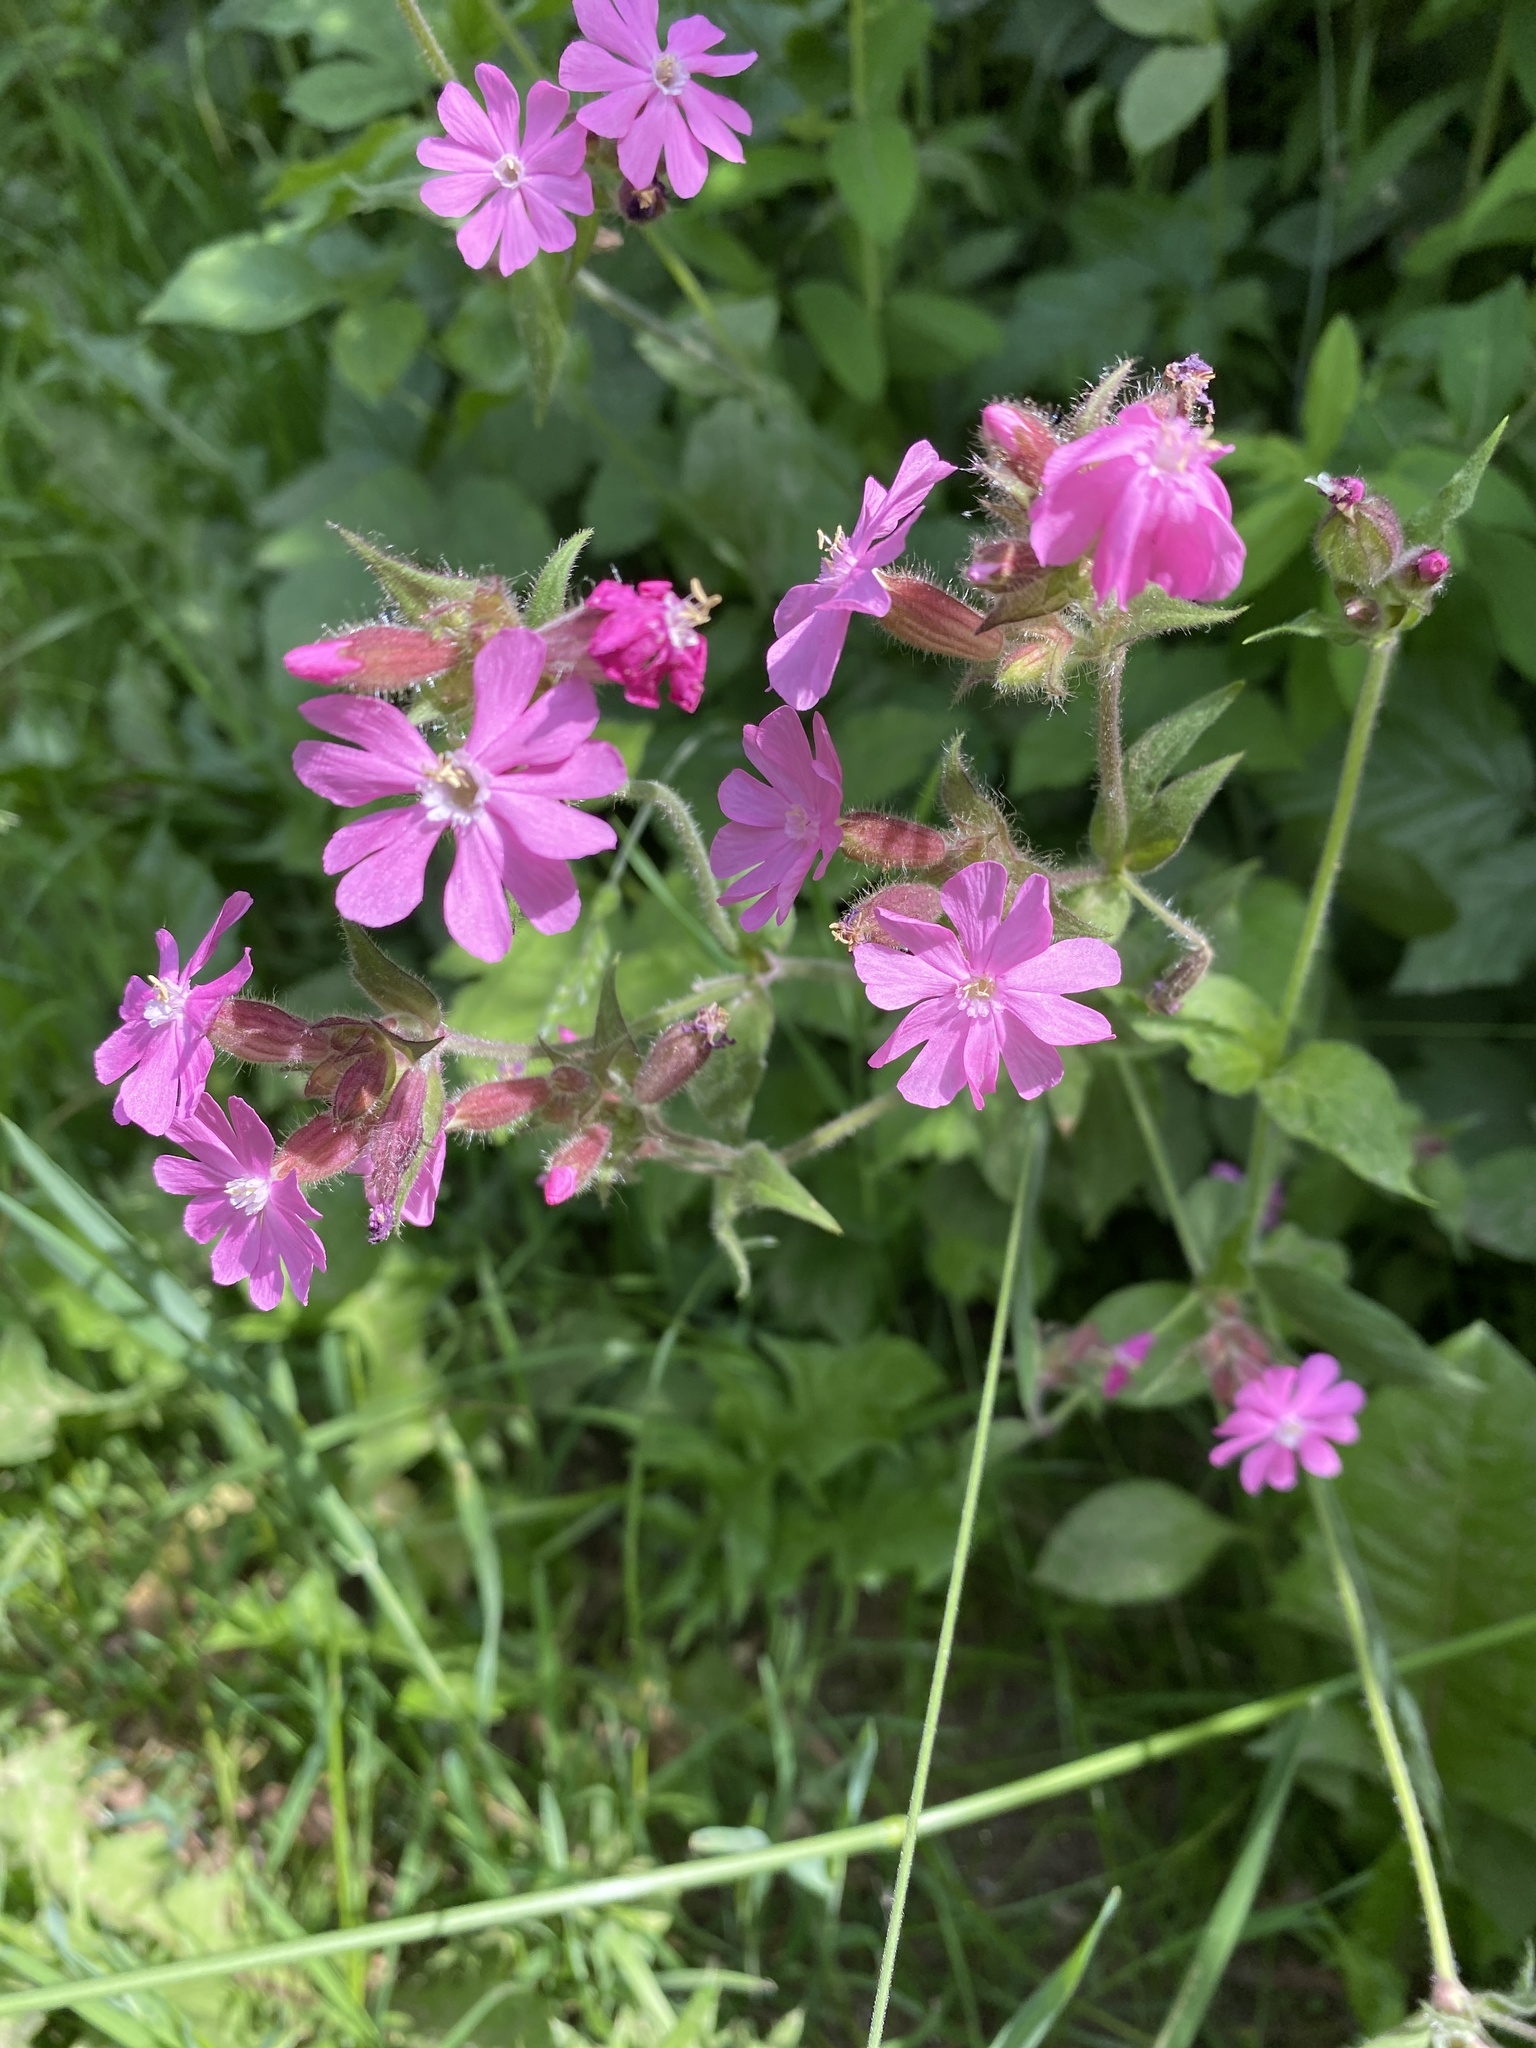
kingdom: Plantae
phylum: Tracheophyta
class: Magnoliopsida
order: Caryophyllales
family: Caryophyllaceae
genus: Silene
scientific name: Silene dioica
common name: Red campion
